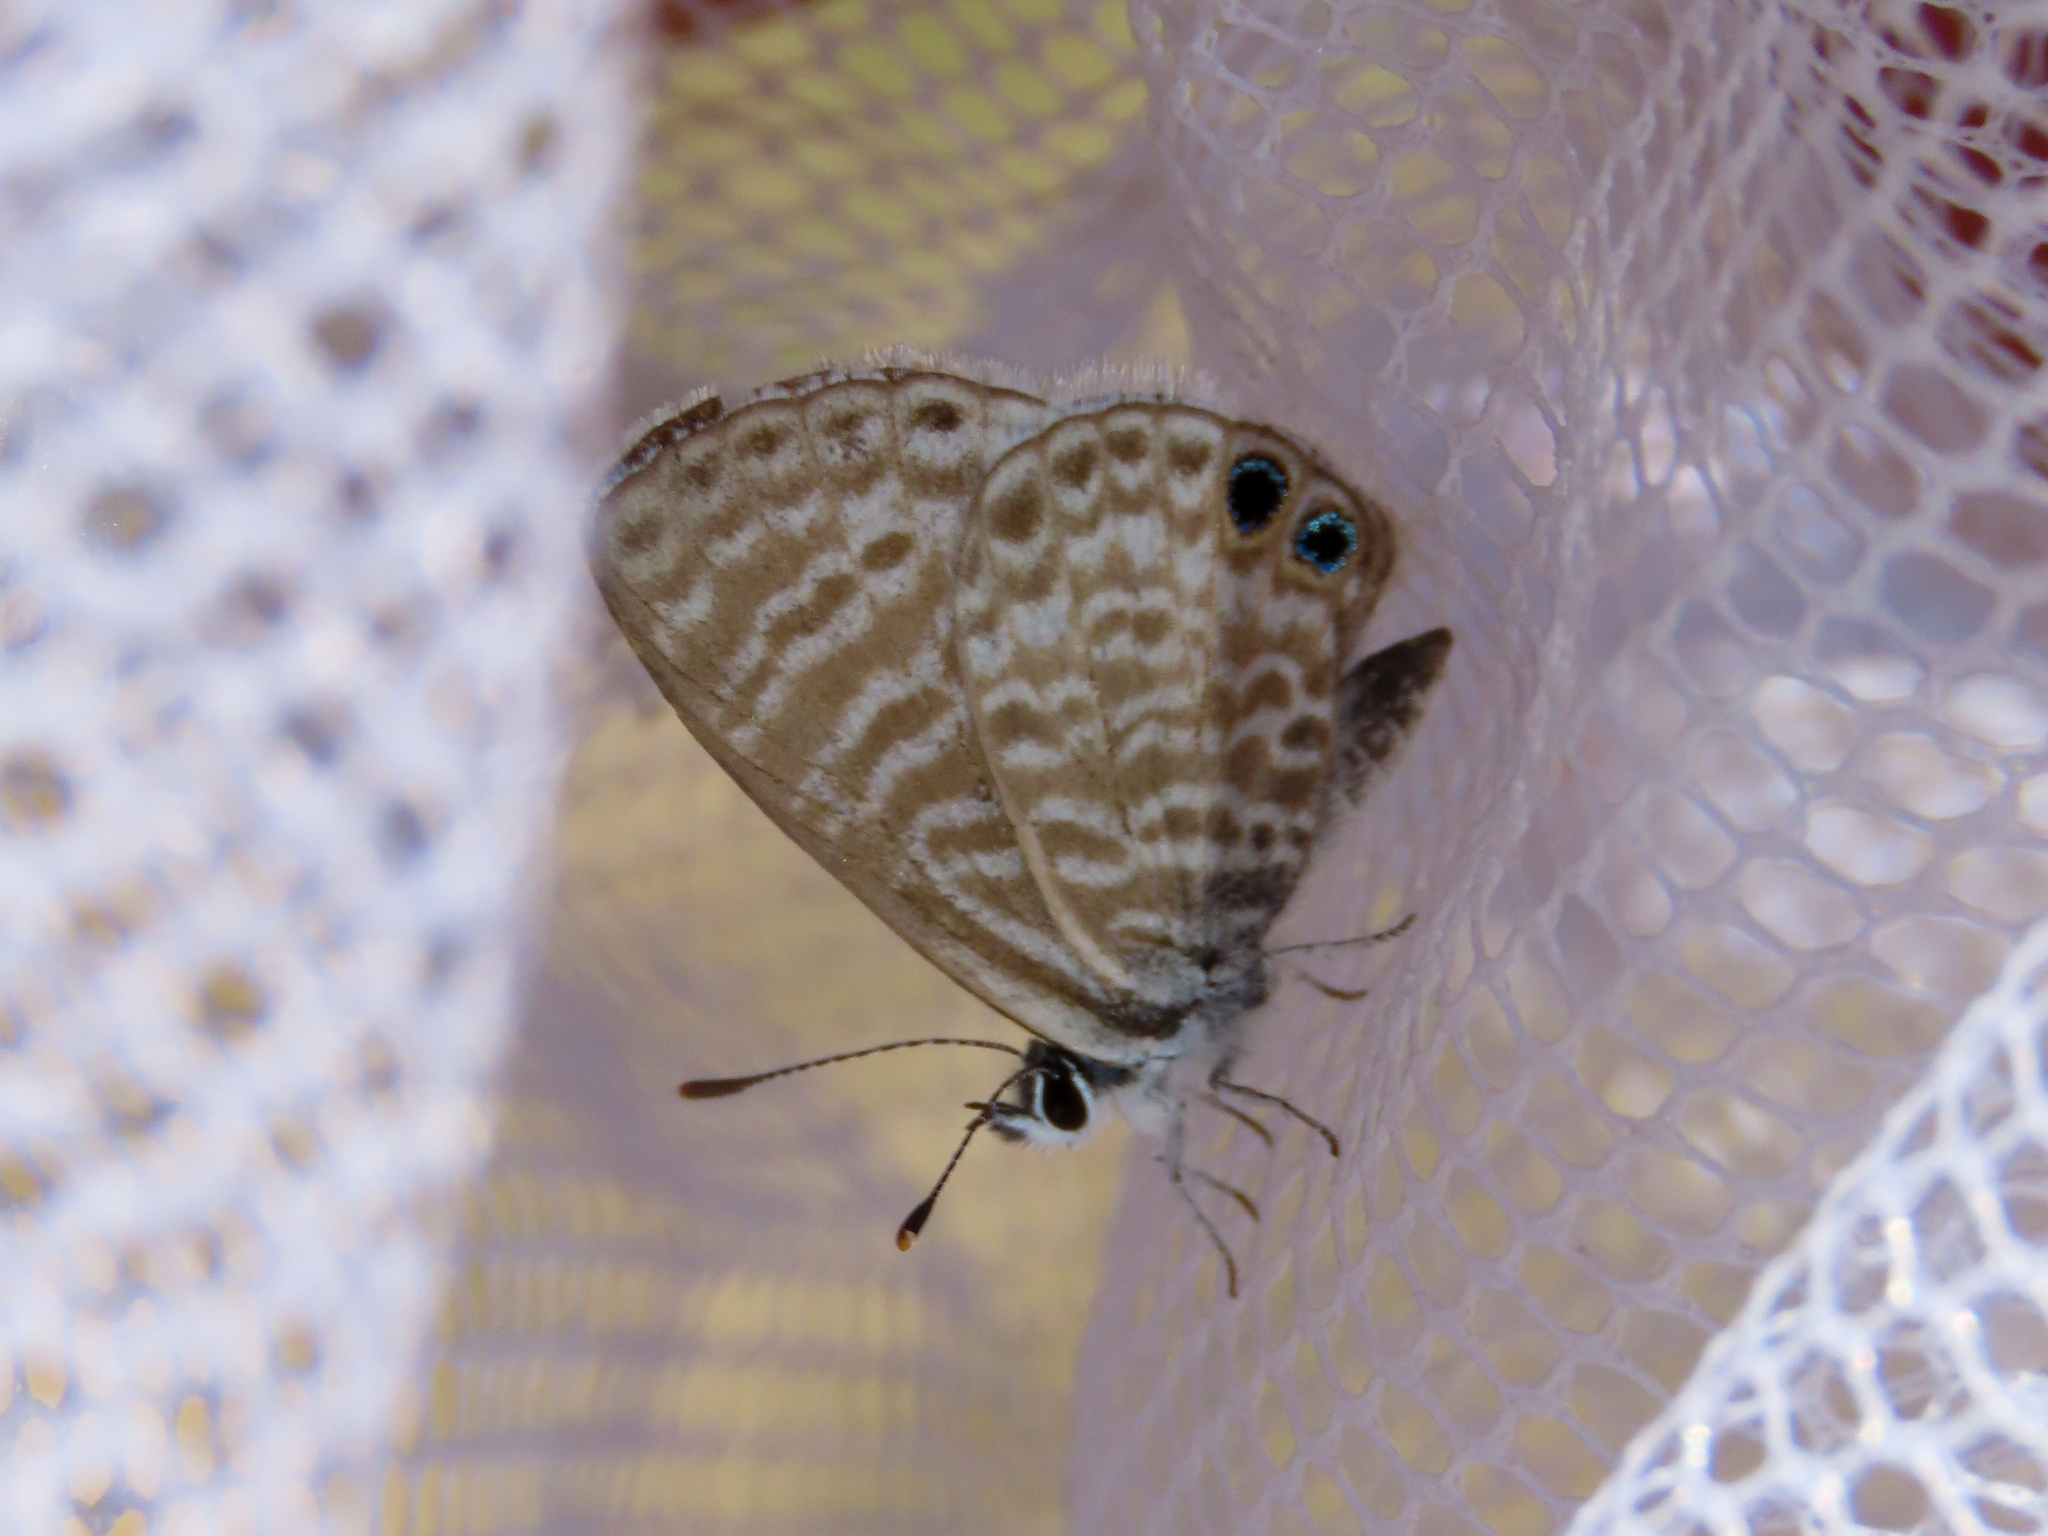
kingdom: Animalia
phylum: Arthropoda
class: Insecta
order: Lepidoptera
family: Lycaenidae
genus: Leptotes
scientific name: Leptotes marina
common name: Marine blue
